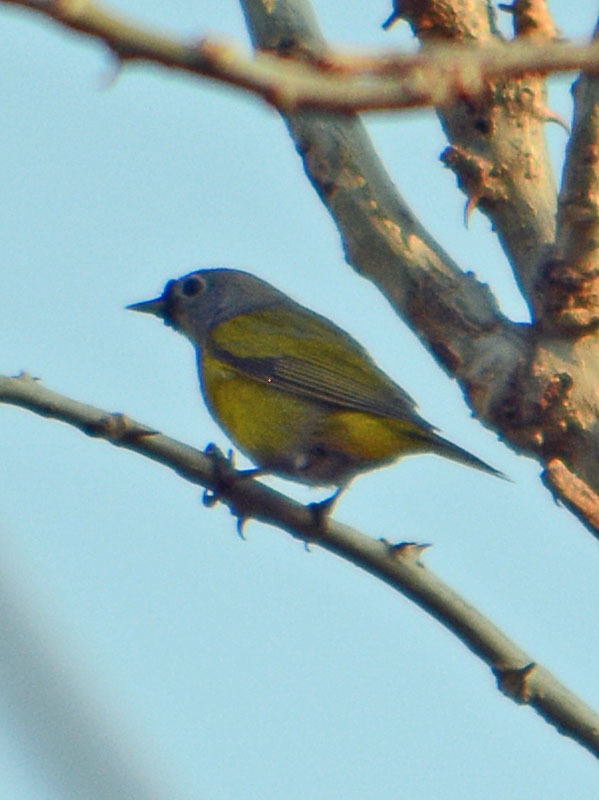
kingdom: Animalia
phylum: Chordata
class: Aves
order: Passeriformes
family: Parulidae
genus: Leiothlypis
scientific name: Leiothlypis ruficapilla
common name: Nashville warbler
